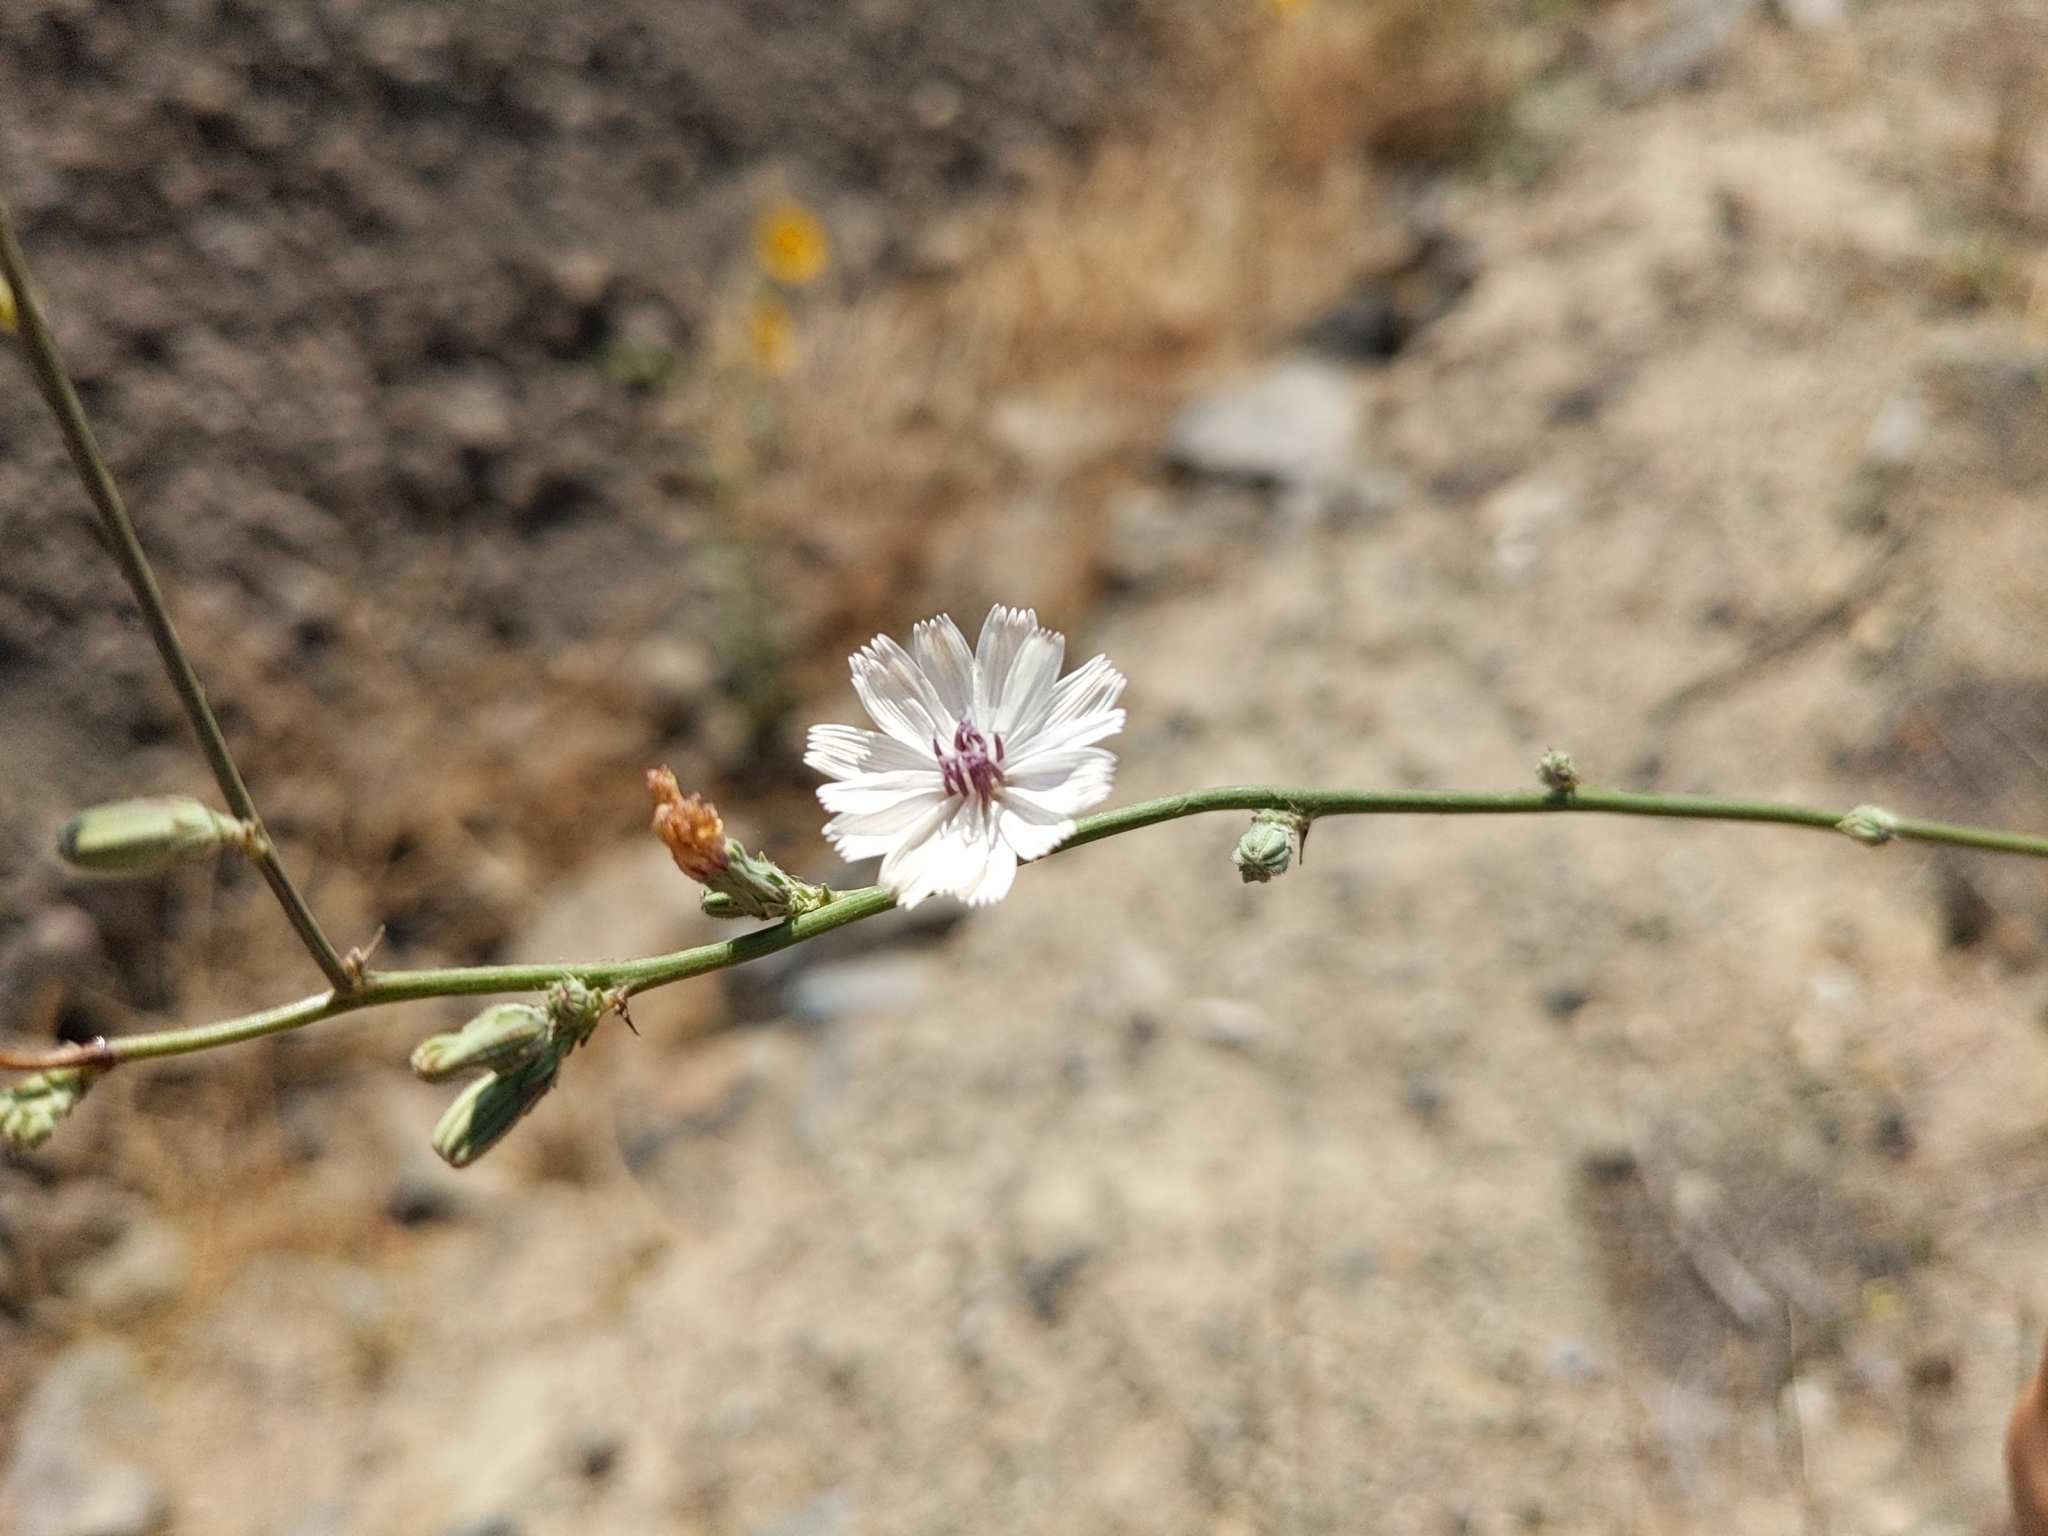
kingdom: Plantae
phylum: Tracheophyta
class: Magnoliopsida
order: Asterales
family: Asteraceae
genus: Stephanomeria
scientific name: Stephanomeria diegensis
